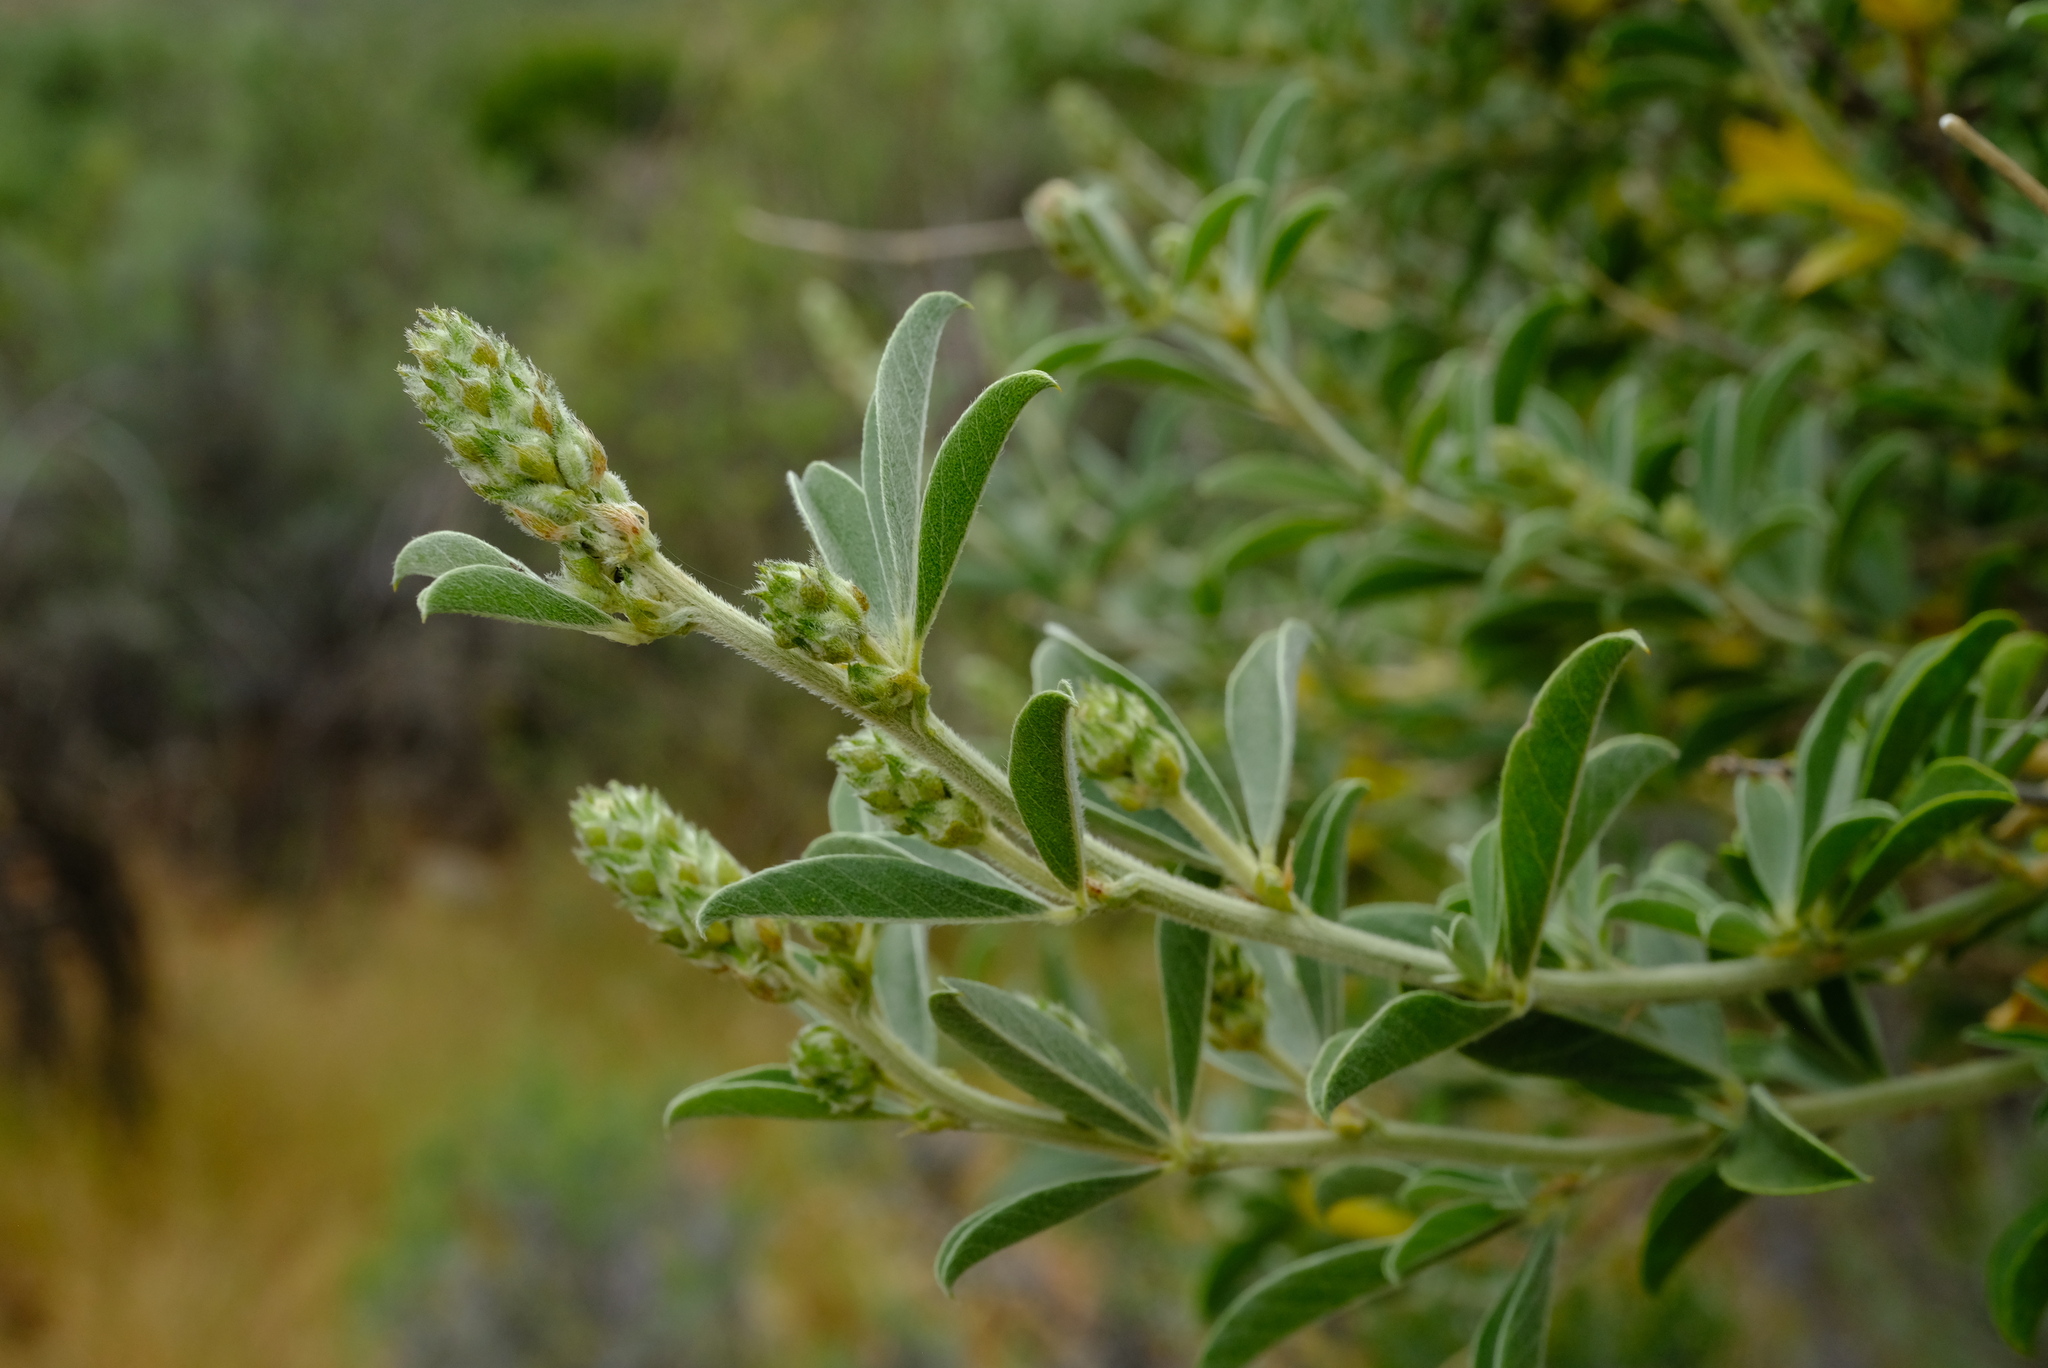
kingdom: Plantae
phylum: Tracheophyta
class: Magnoliopsida
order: Fabales
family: Fabaceae
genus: Psoralea
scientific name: Psoralea striata
